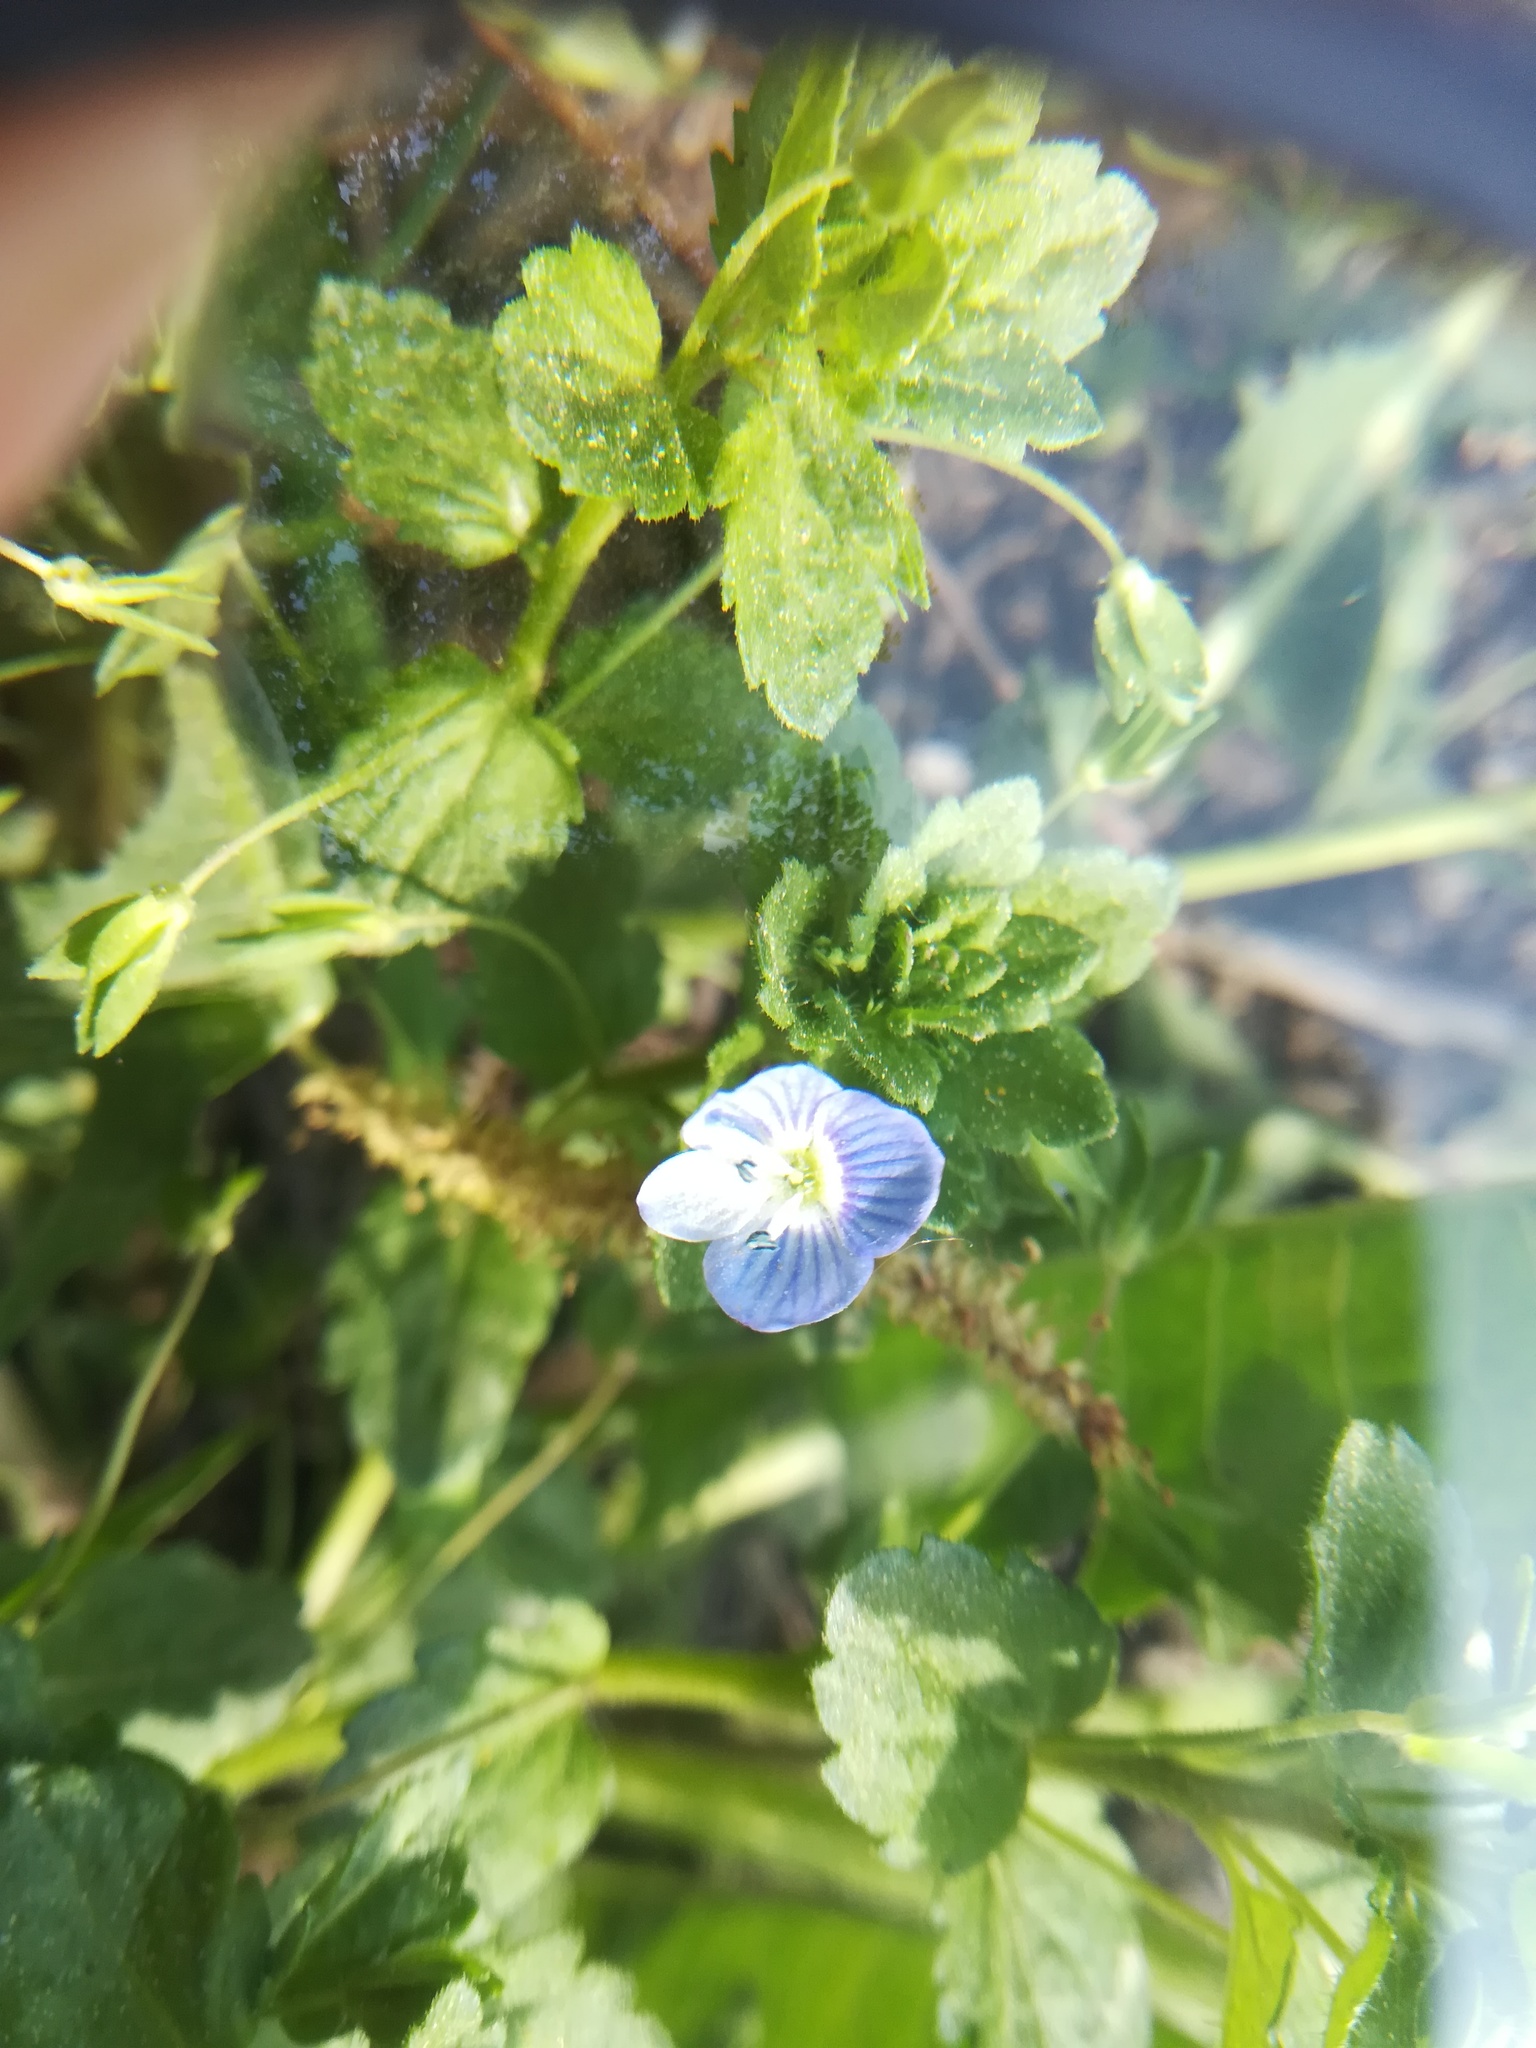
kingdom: Plantae
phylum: Tracheophyta
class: Magnoliopsida
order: Lamiales
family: Plantaginaceae
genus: Veronica
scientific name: Veronica persica
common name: Common field-speedwell
